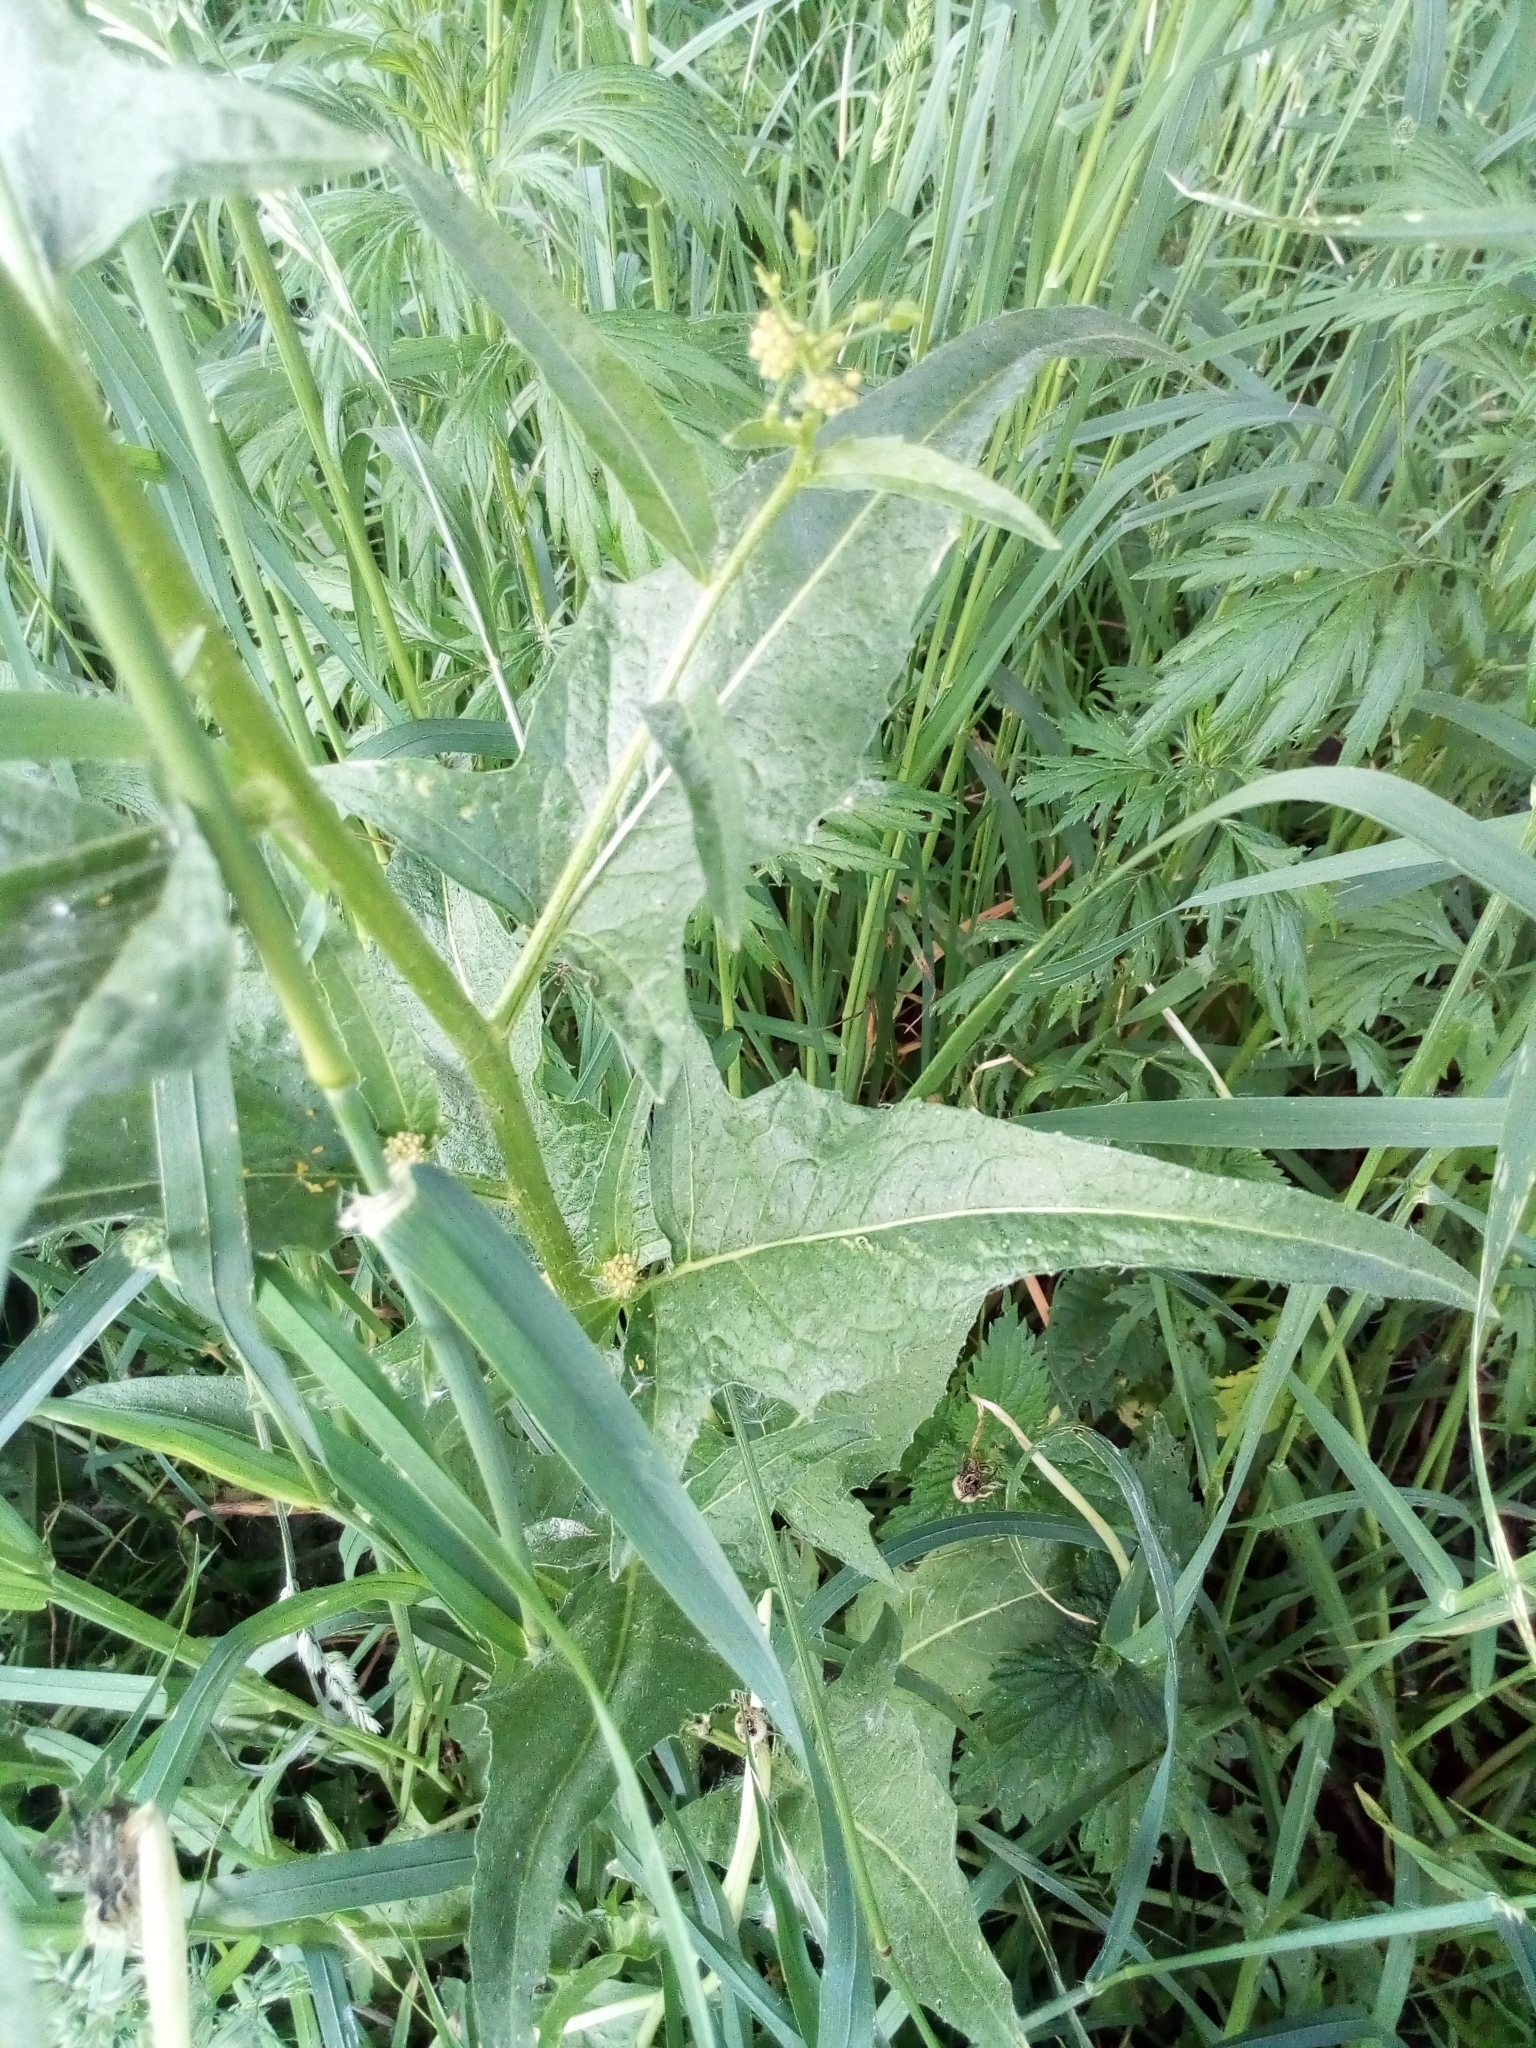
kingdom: Plantae
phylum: Tracheophyta
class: Magnoliopsida
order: Brassicales
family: Brassicaceae
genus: Bunias
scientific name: Bunias orientalis
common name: Warty-cabbage
